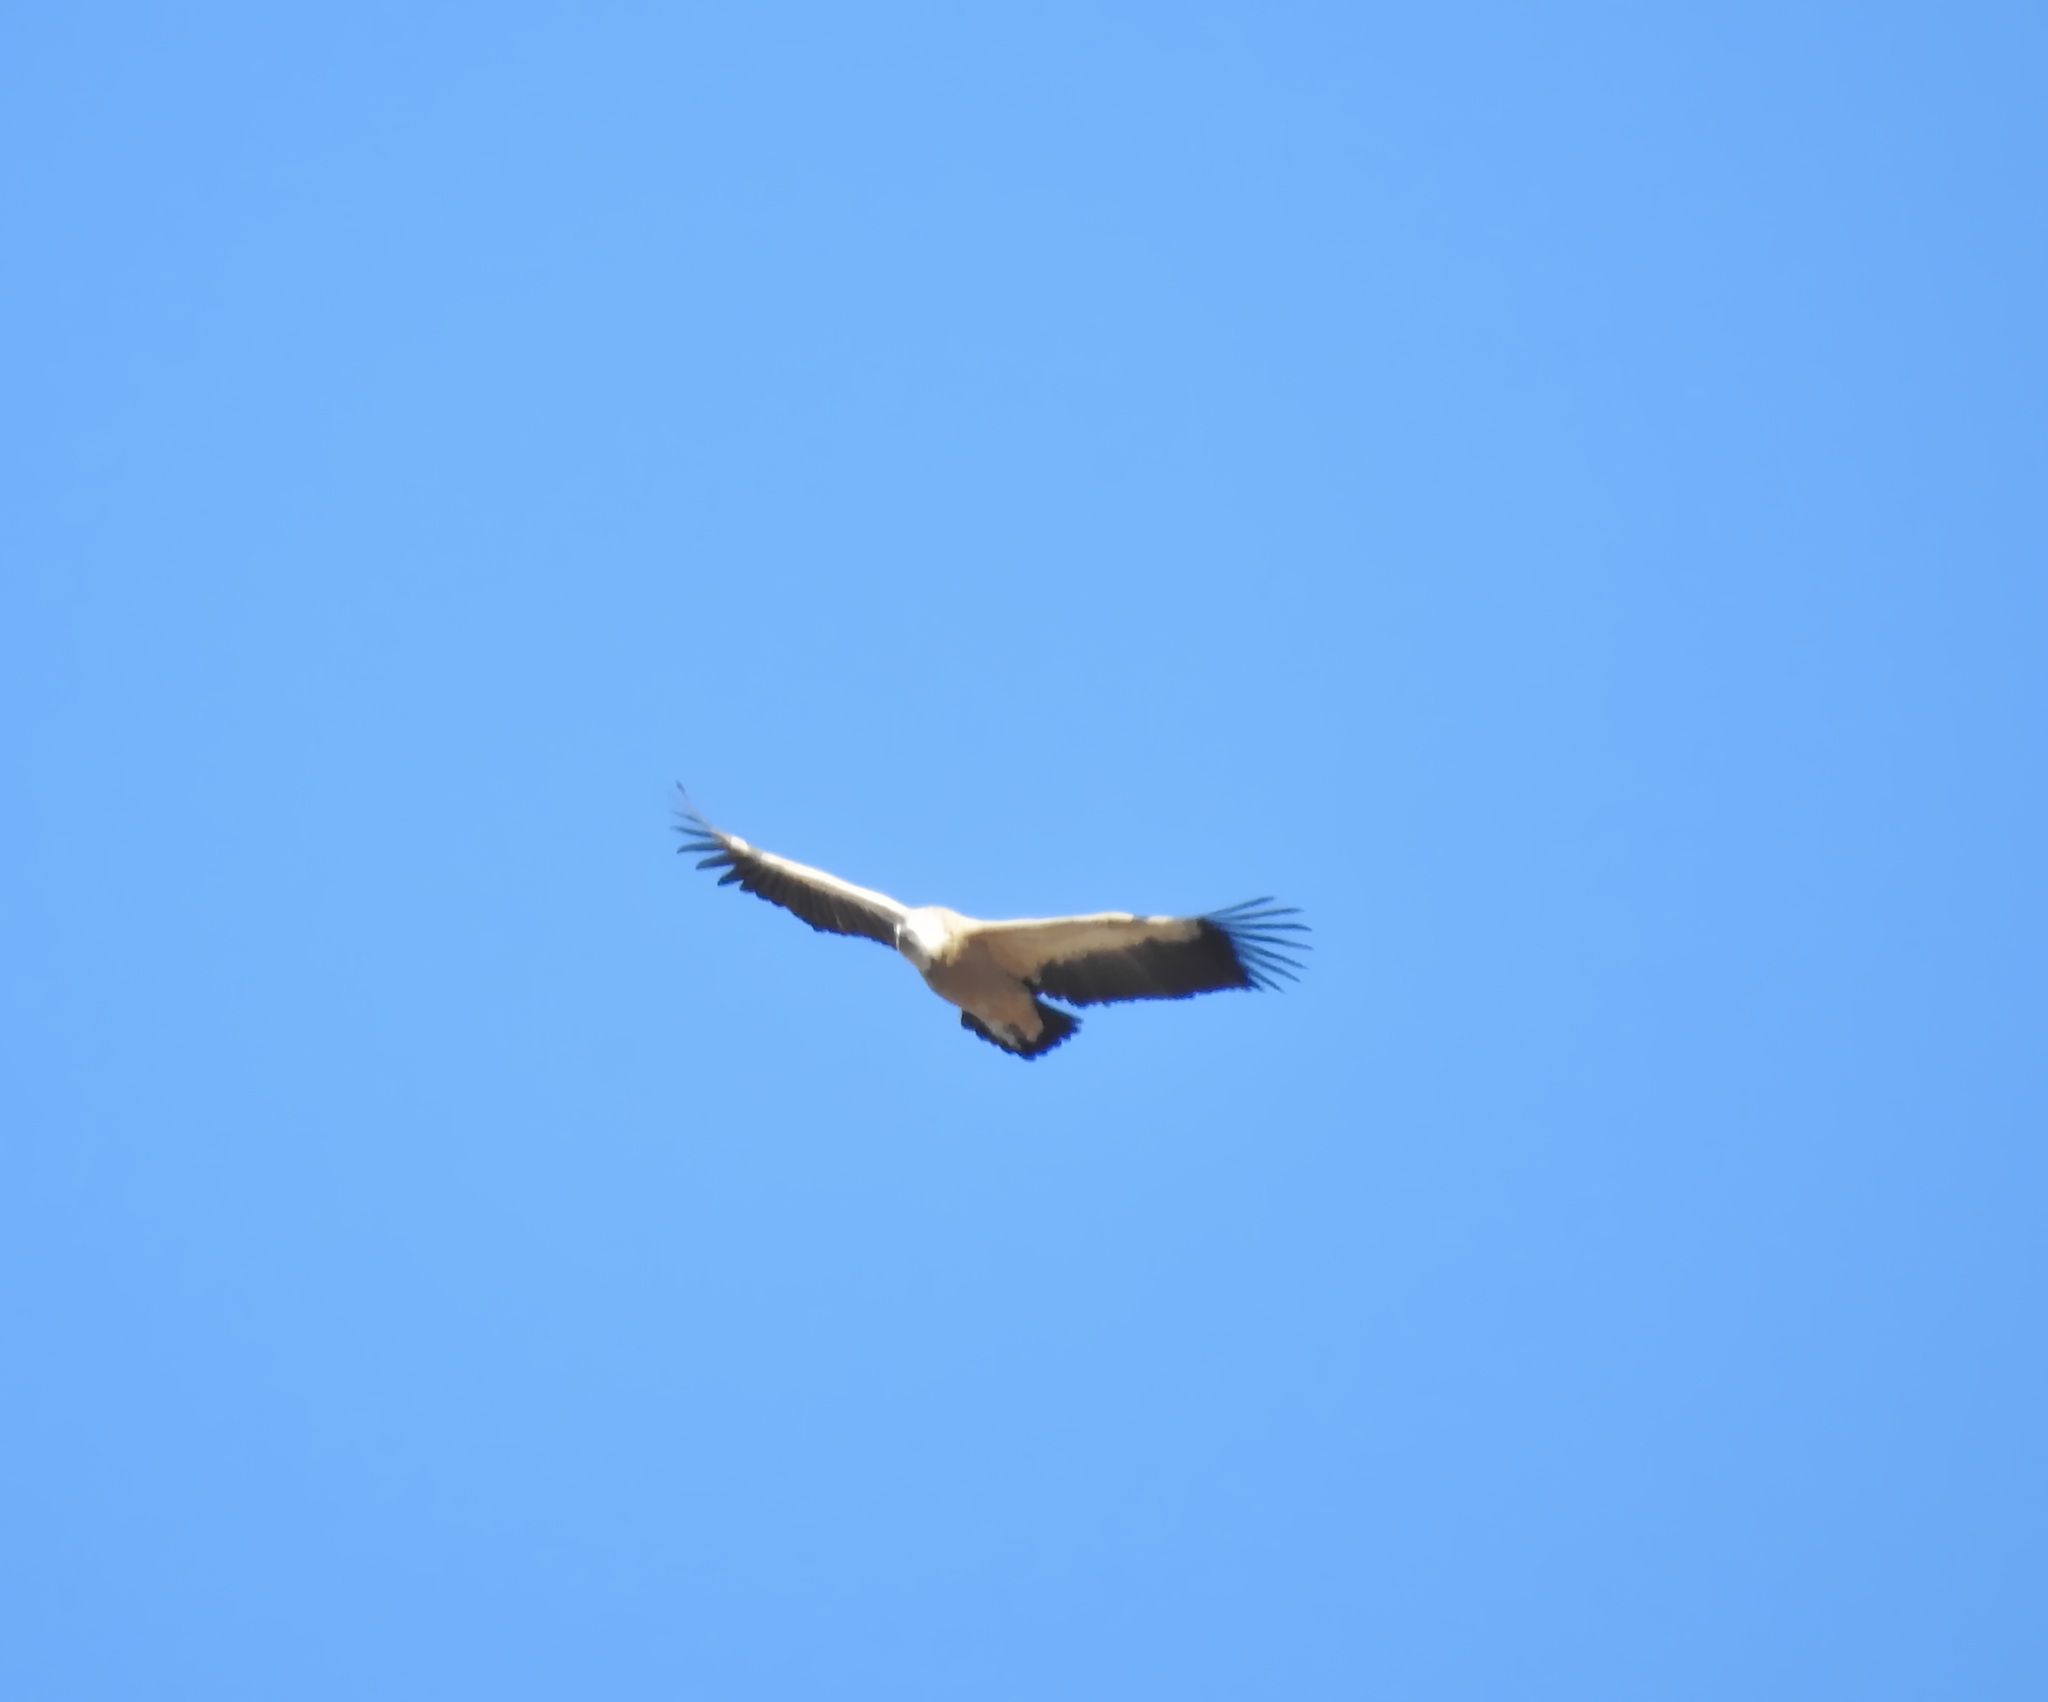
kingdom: Animalia
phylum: Chordata
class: Aves
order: Accipitriformes
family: Accipitridae
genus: Gyps
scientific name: Gyps fulvus
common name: Griffon vulture
